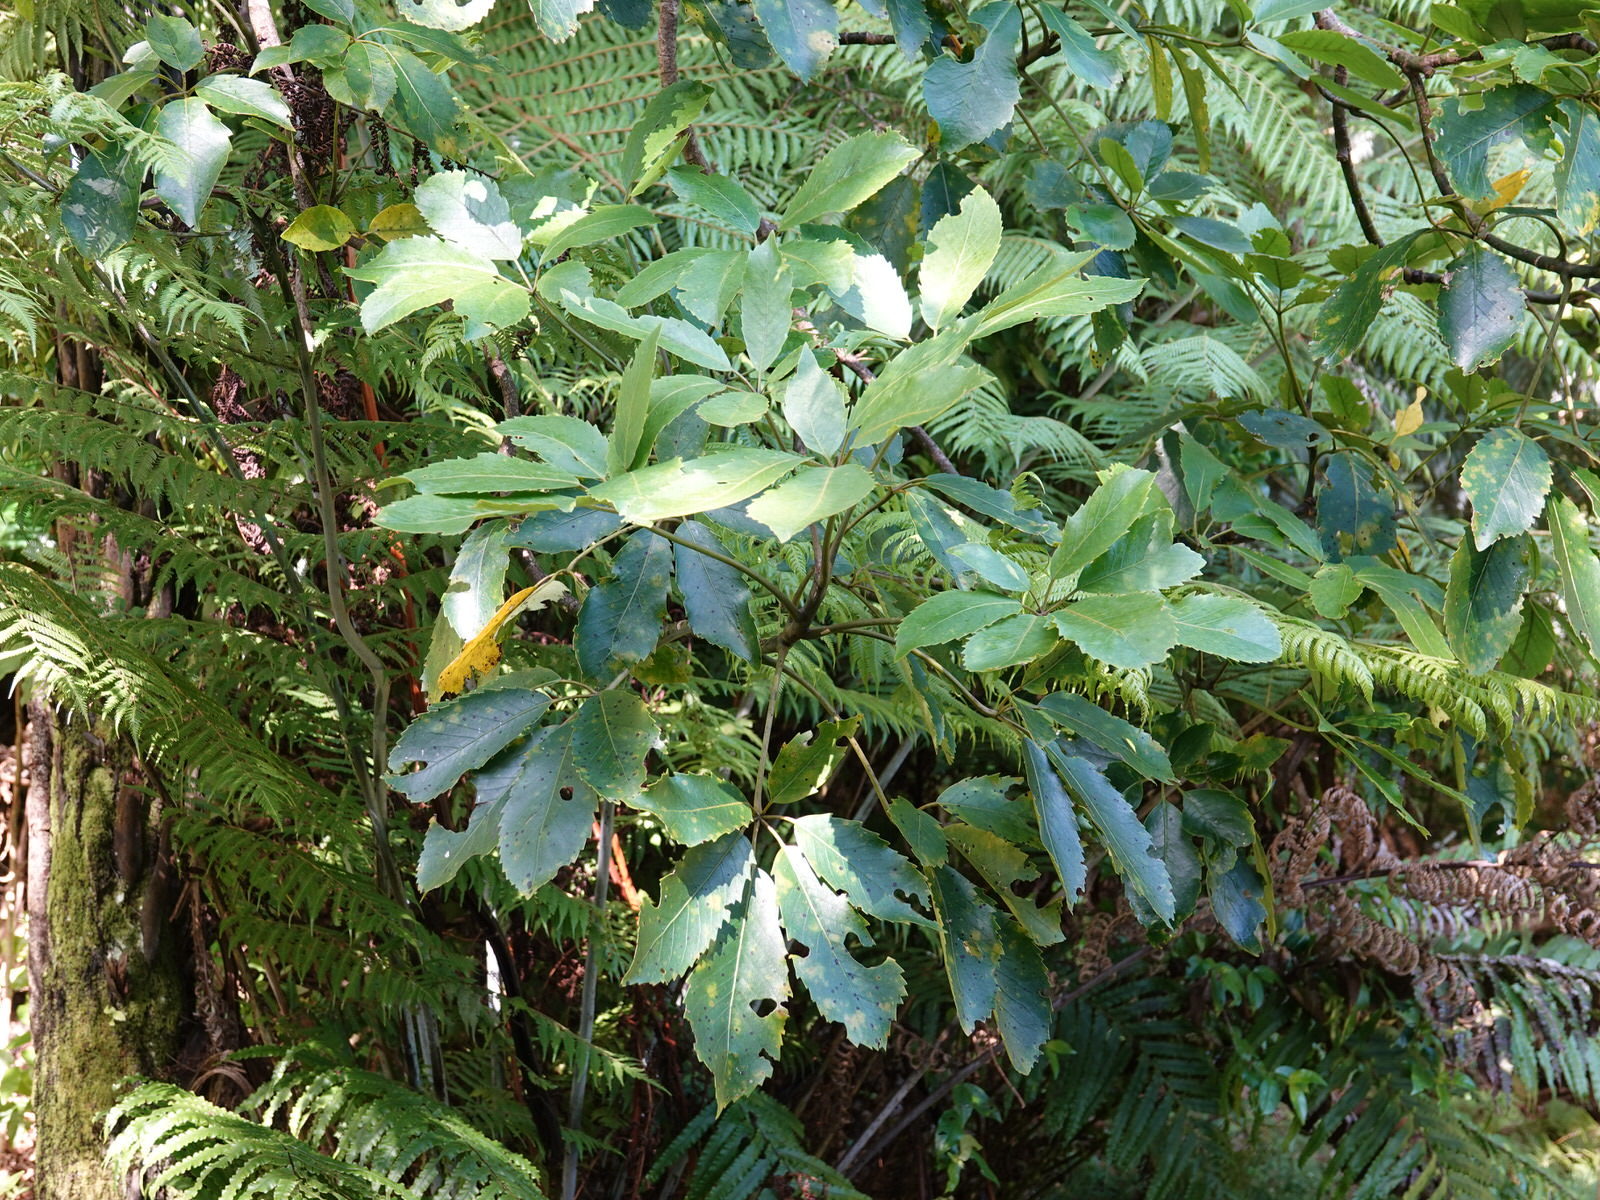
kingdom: Fungi
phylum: Ascomycota
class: Dothideomycetes
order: Asterinales
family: Asterinaceae
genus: Placosoma
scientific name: Placosoma nothopanacis
